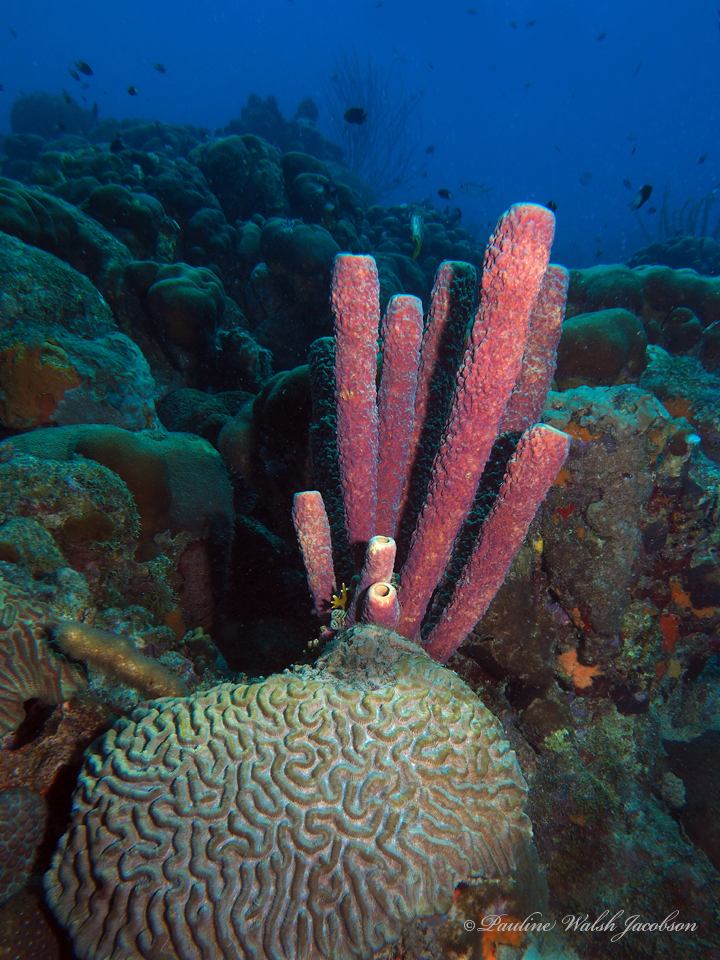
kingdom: Animalia
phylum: Porifera
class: Demospongiae
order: Verongiida
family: Aplysinidae
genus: Aplysina
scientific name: Aplysina archeri
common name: Stove-pipe sponge
